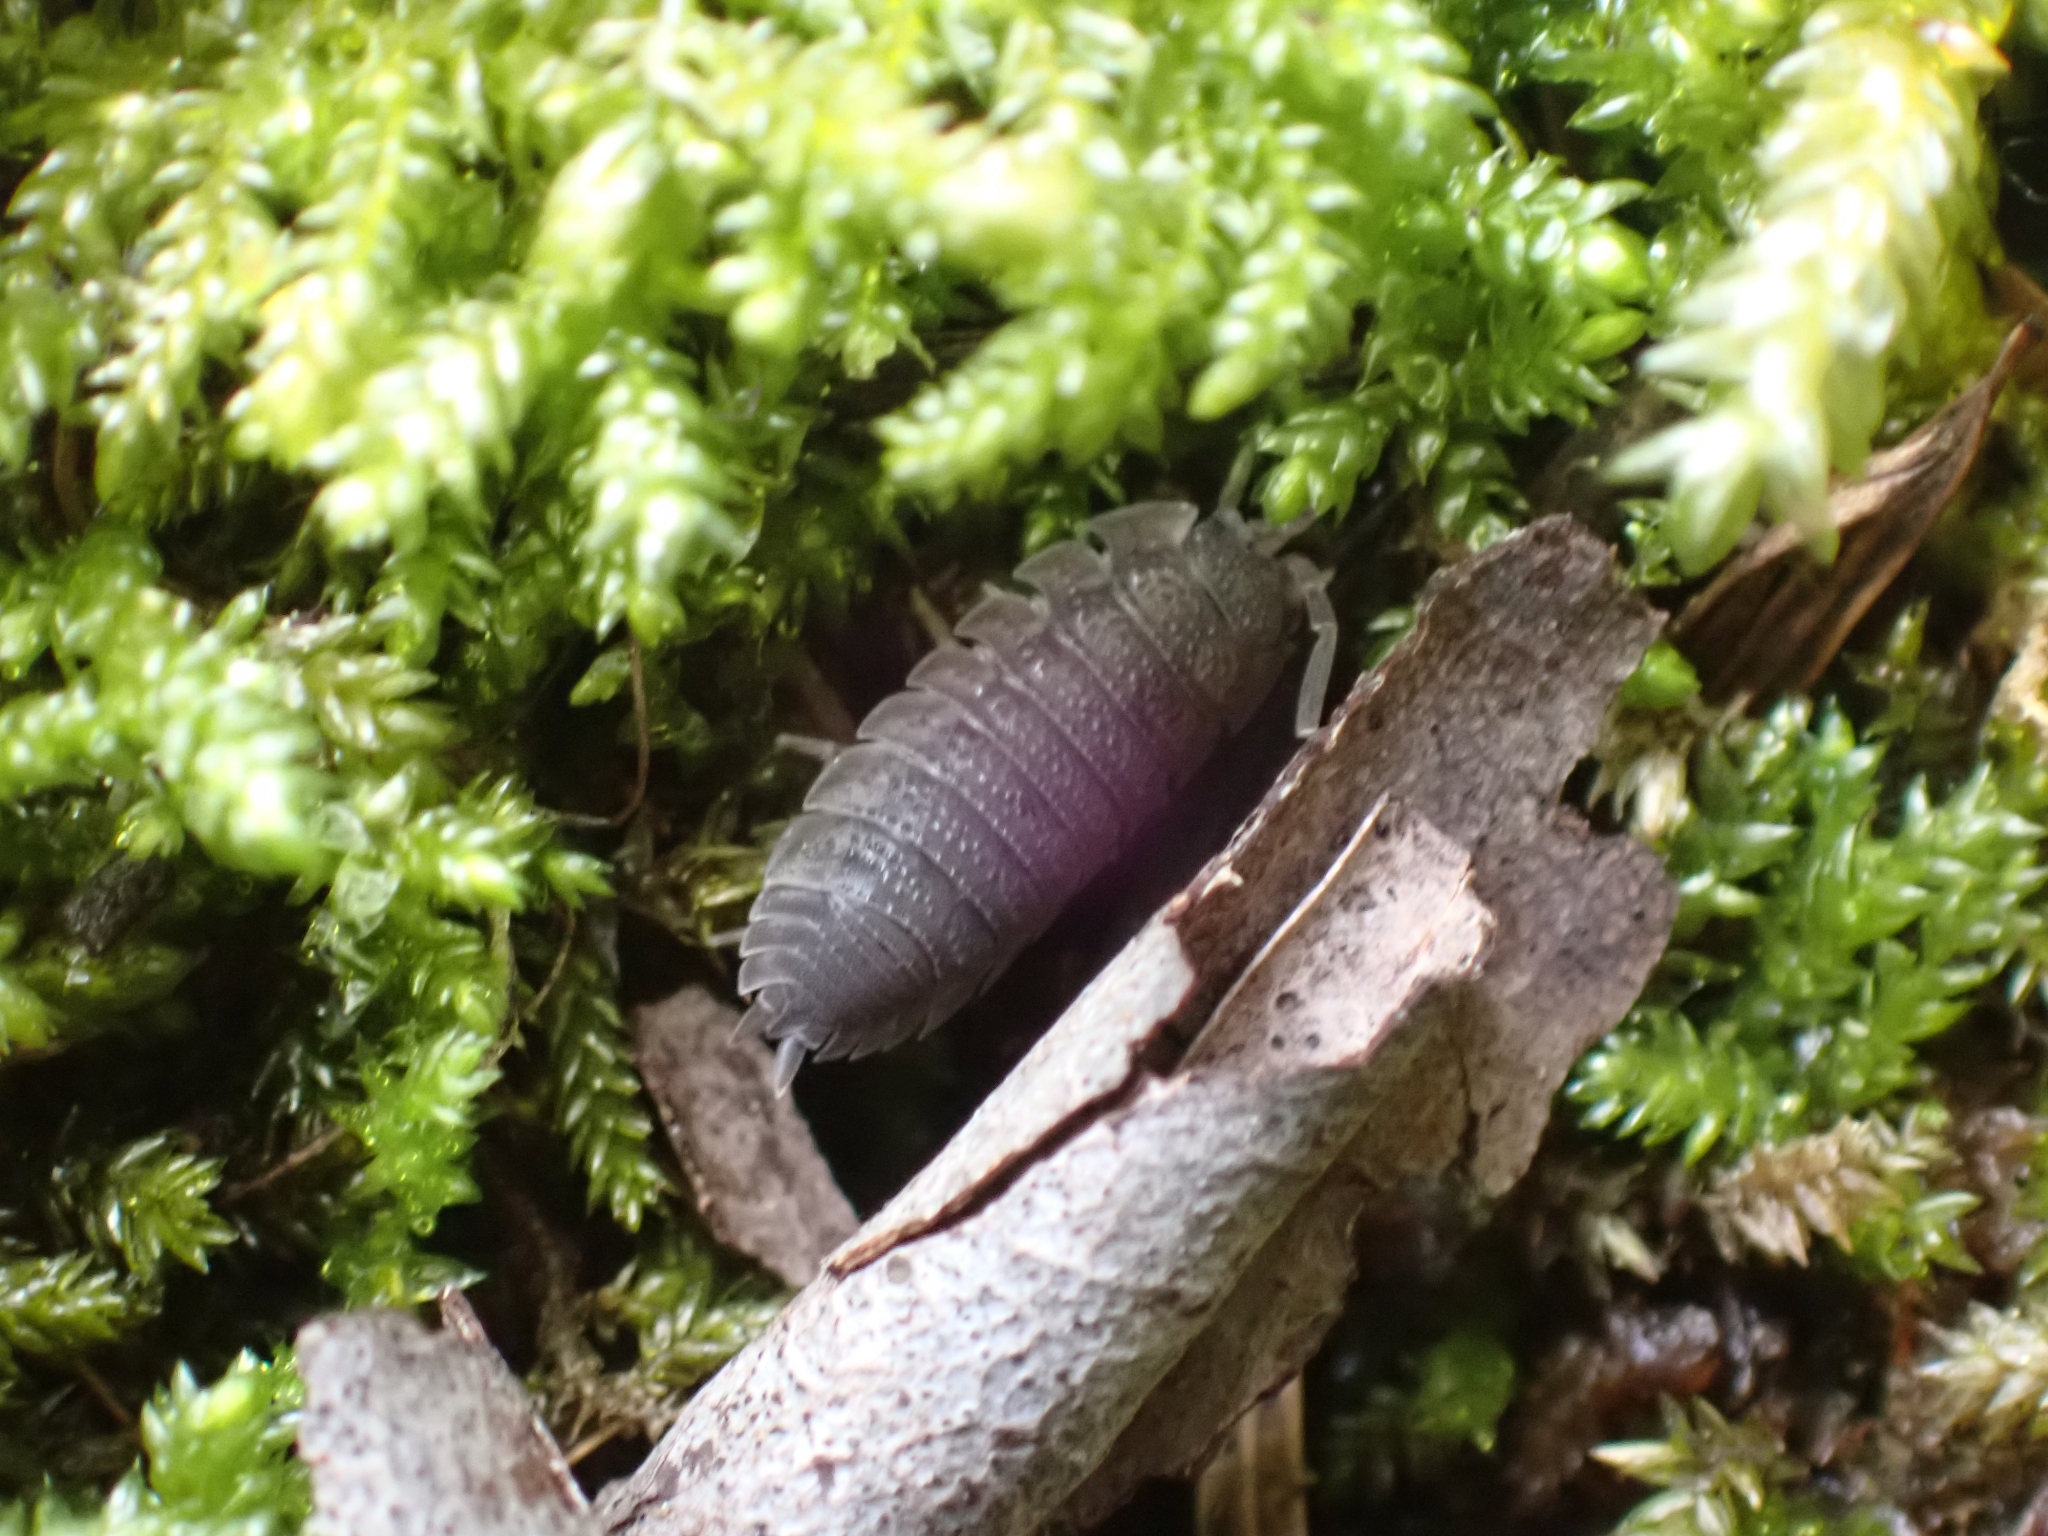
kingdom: Animalia
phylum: Arthropoda
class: Malacostraca
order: Isopoda
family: Porcellionidae
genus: Porcellio
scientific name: Porcellio scaber
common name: Common rough woodlouse
